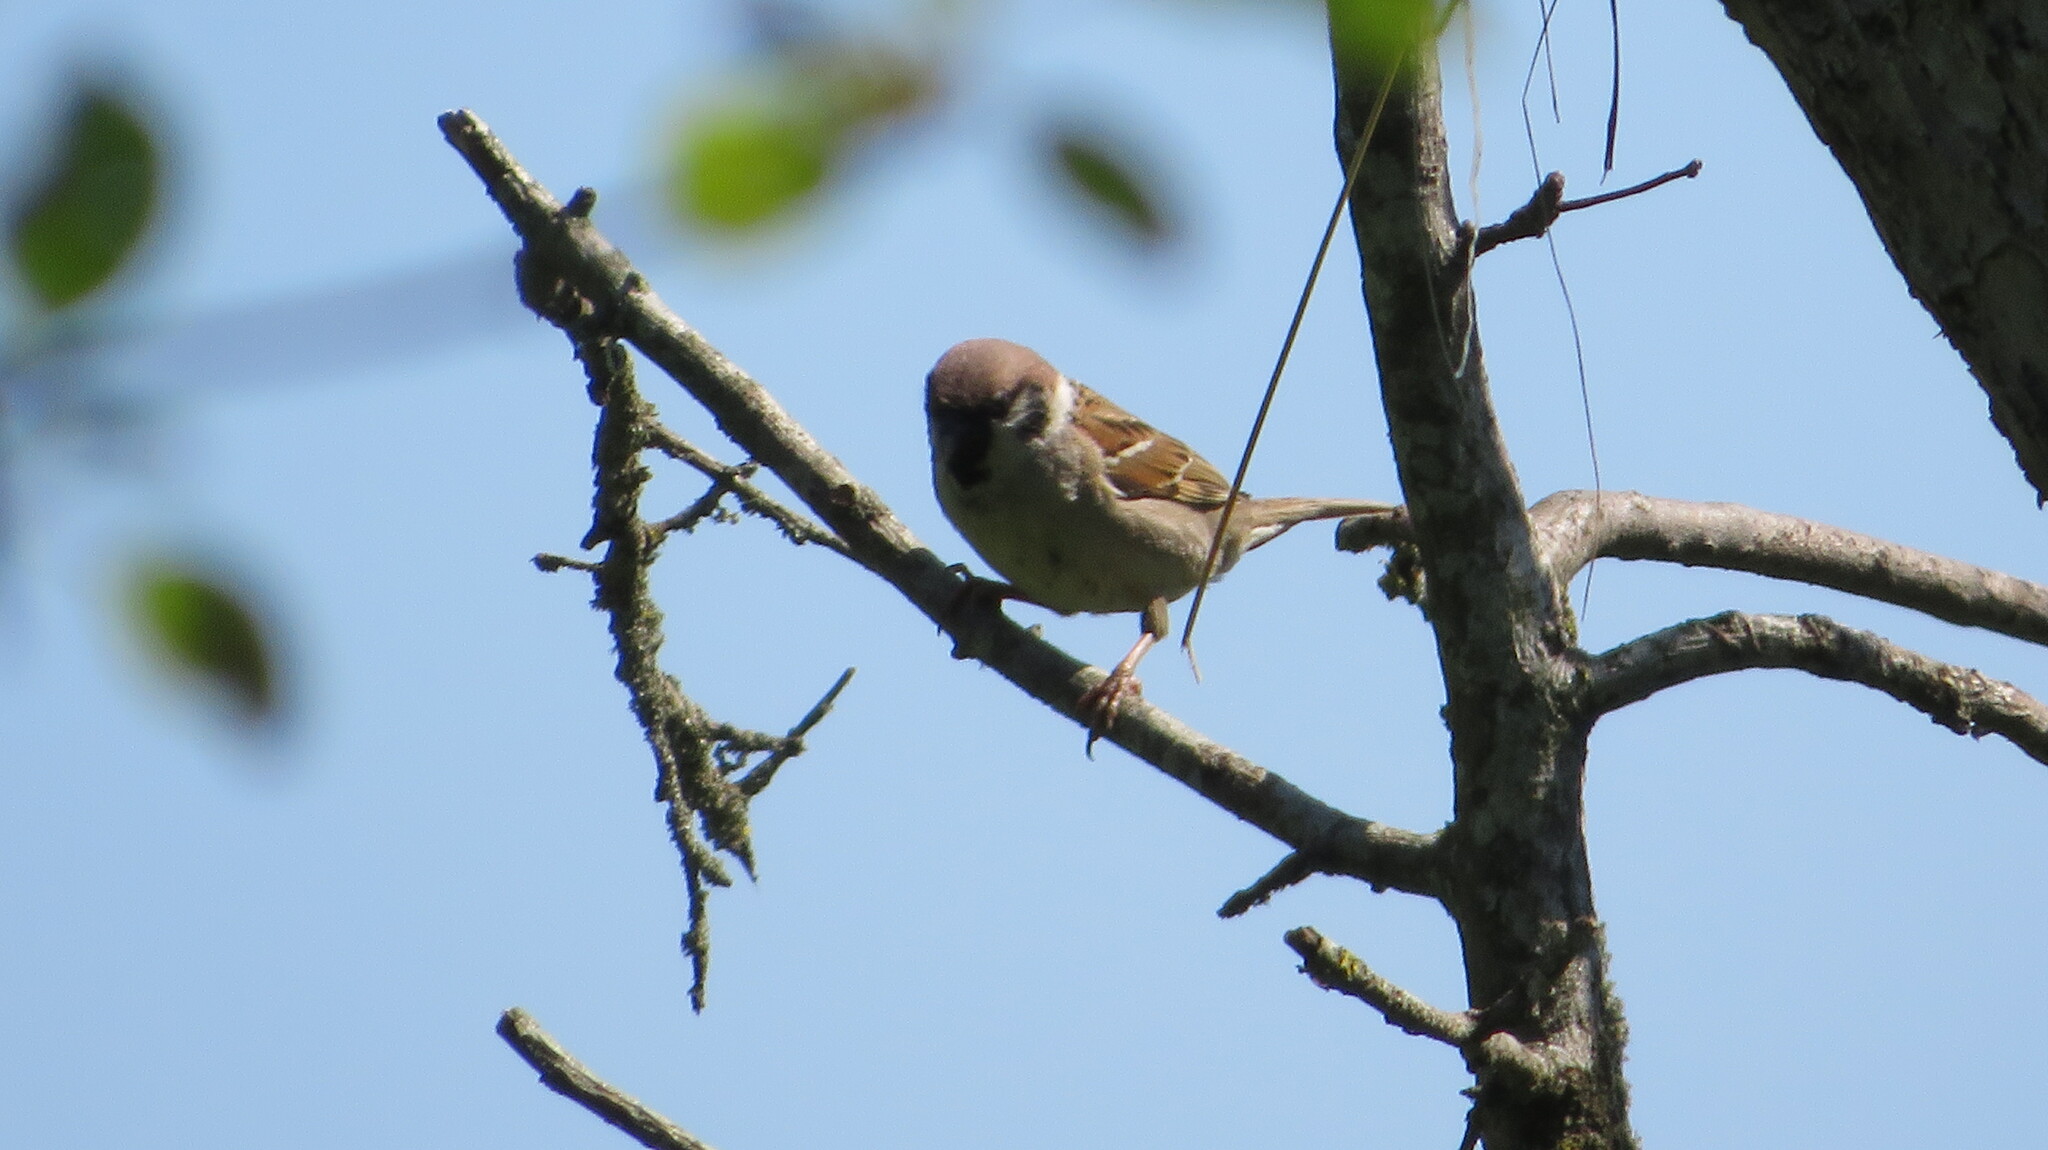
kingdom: Animalia
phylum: Chordata
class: Aves
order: Passeriformes
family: Passeridae
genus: Passer
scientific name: Passer montanus
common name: Eurasian tree sparrow
